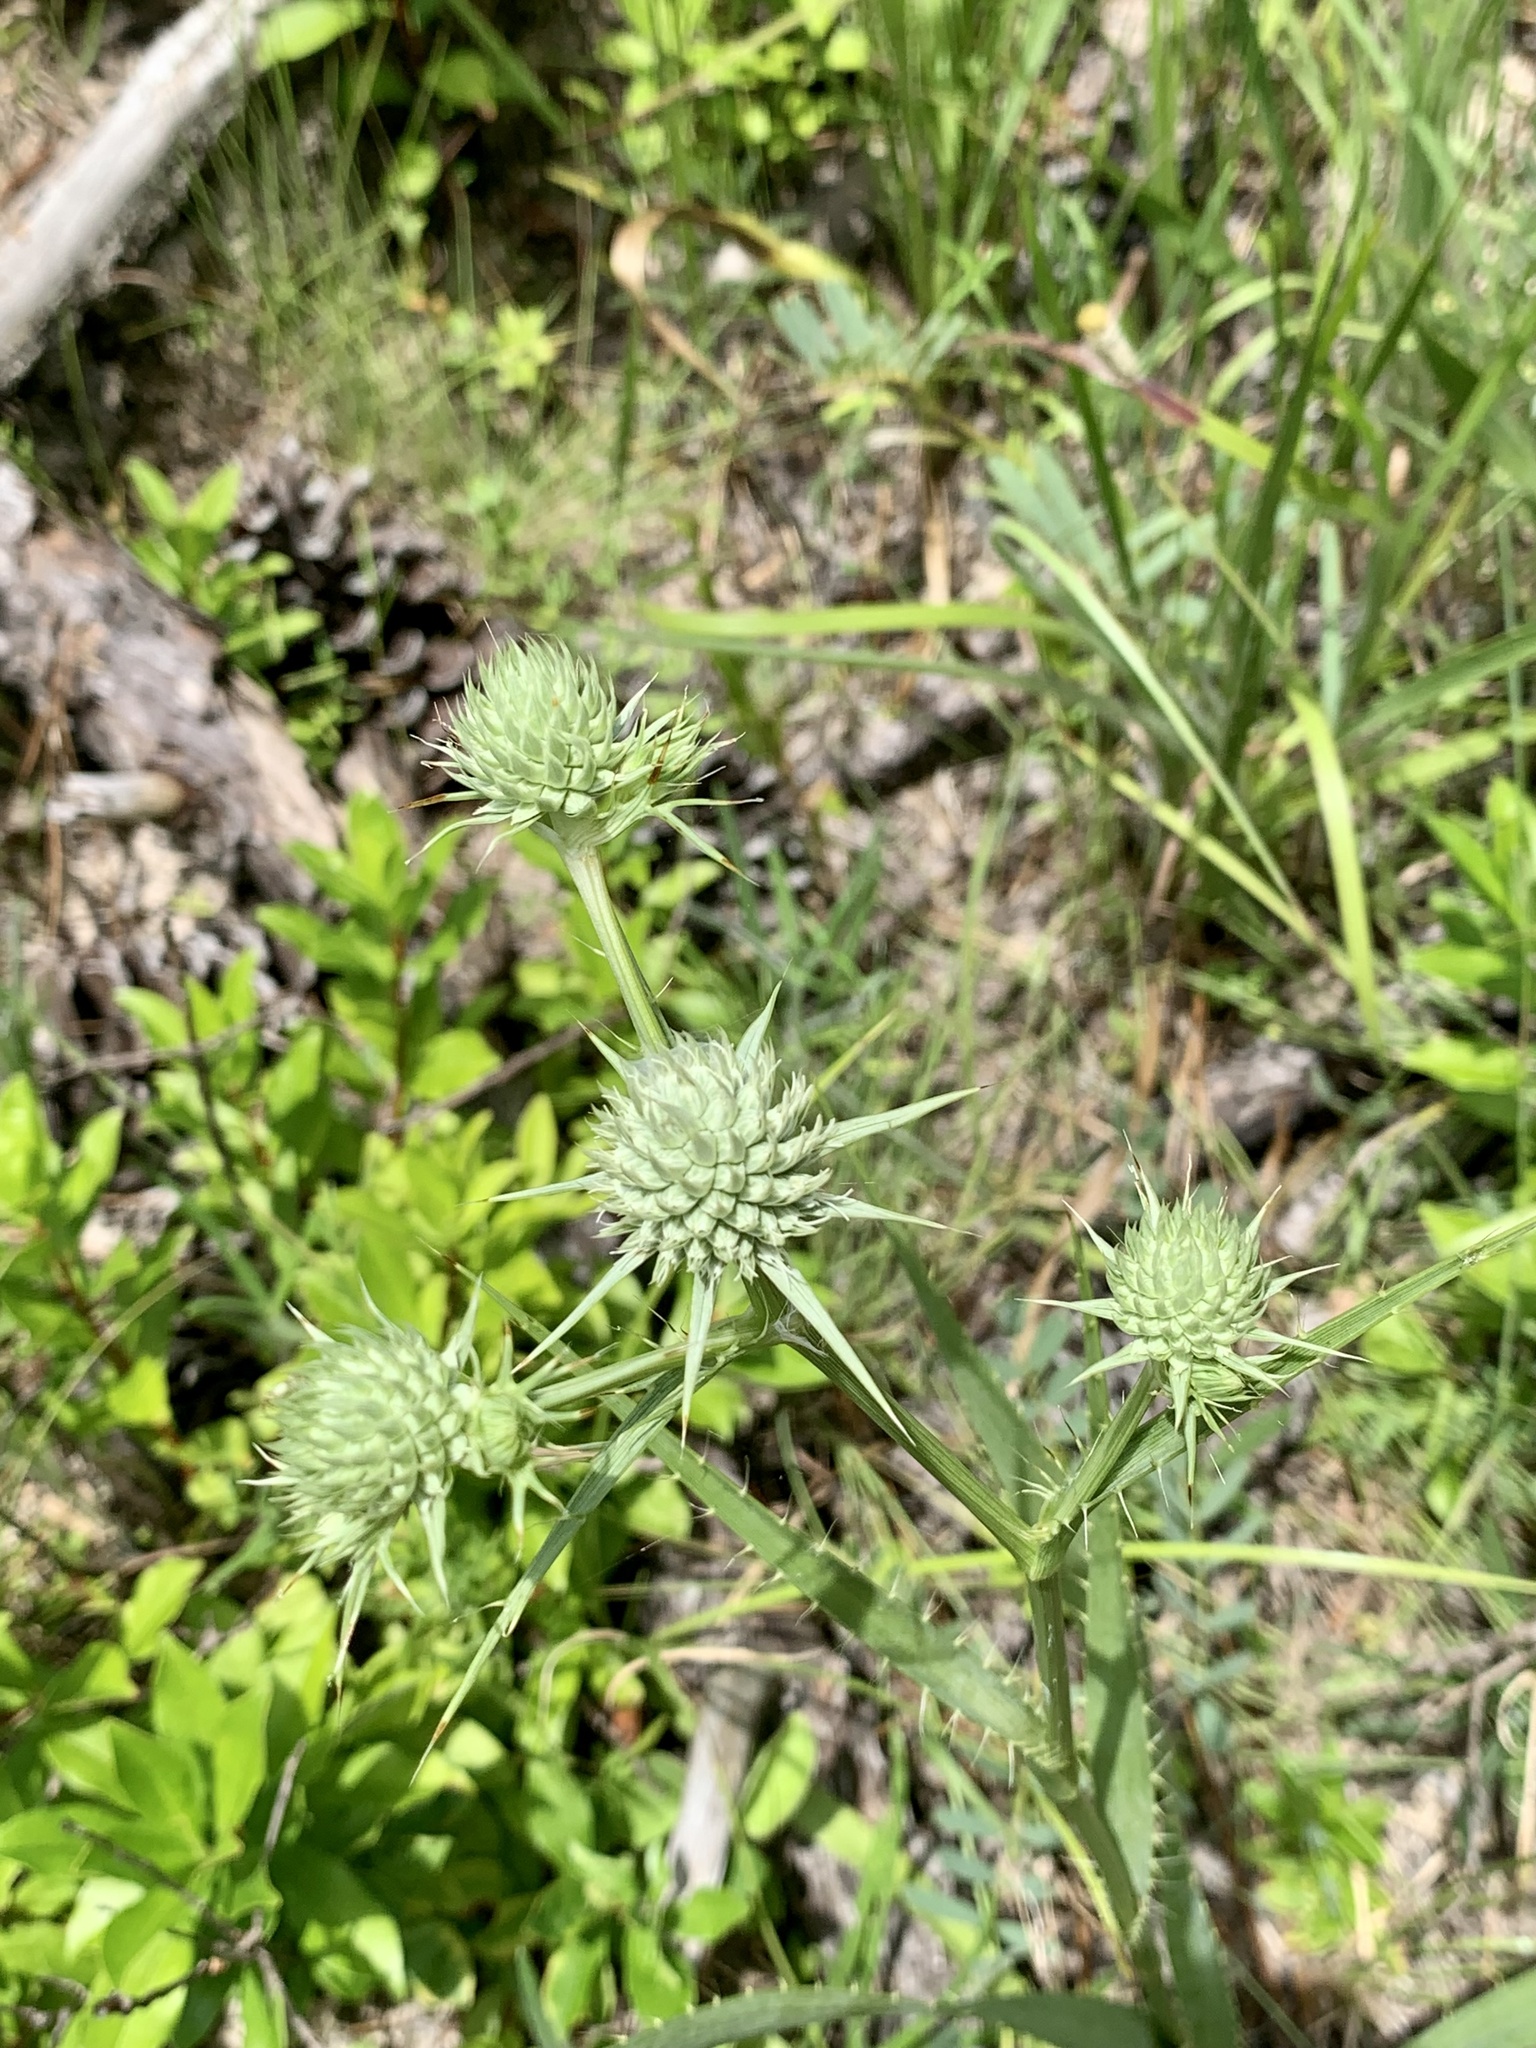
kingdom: Plantae
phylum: Tracheophyta
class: Magnoliopsida
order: Apiales
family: Apiaceae
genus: Eryngium
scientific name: Eryngium yuccifolium
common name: Button eryngo
